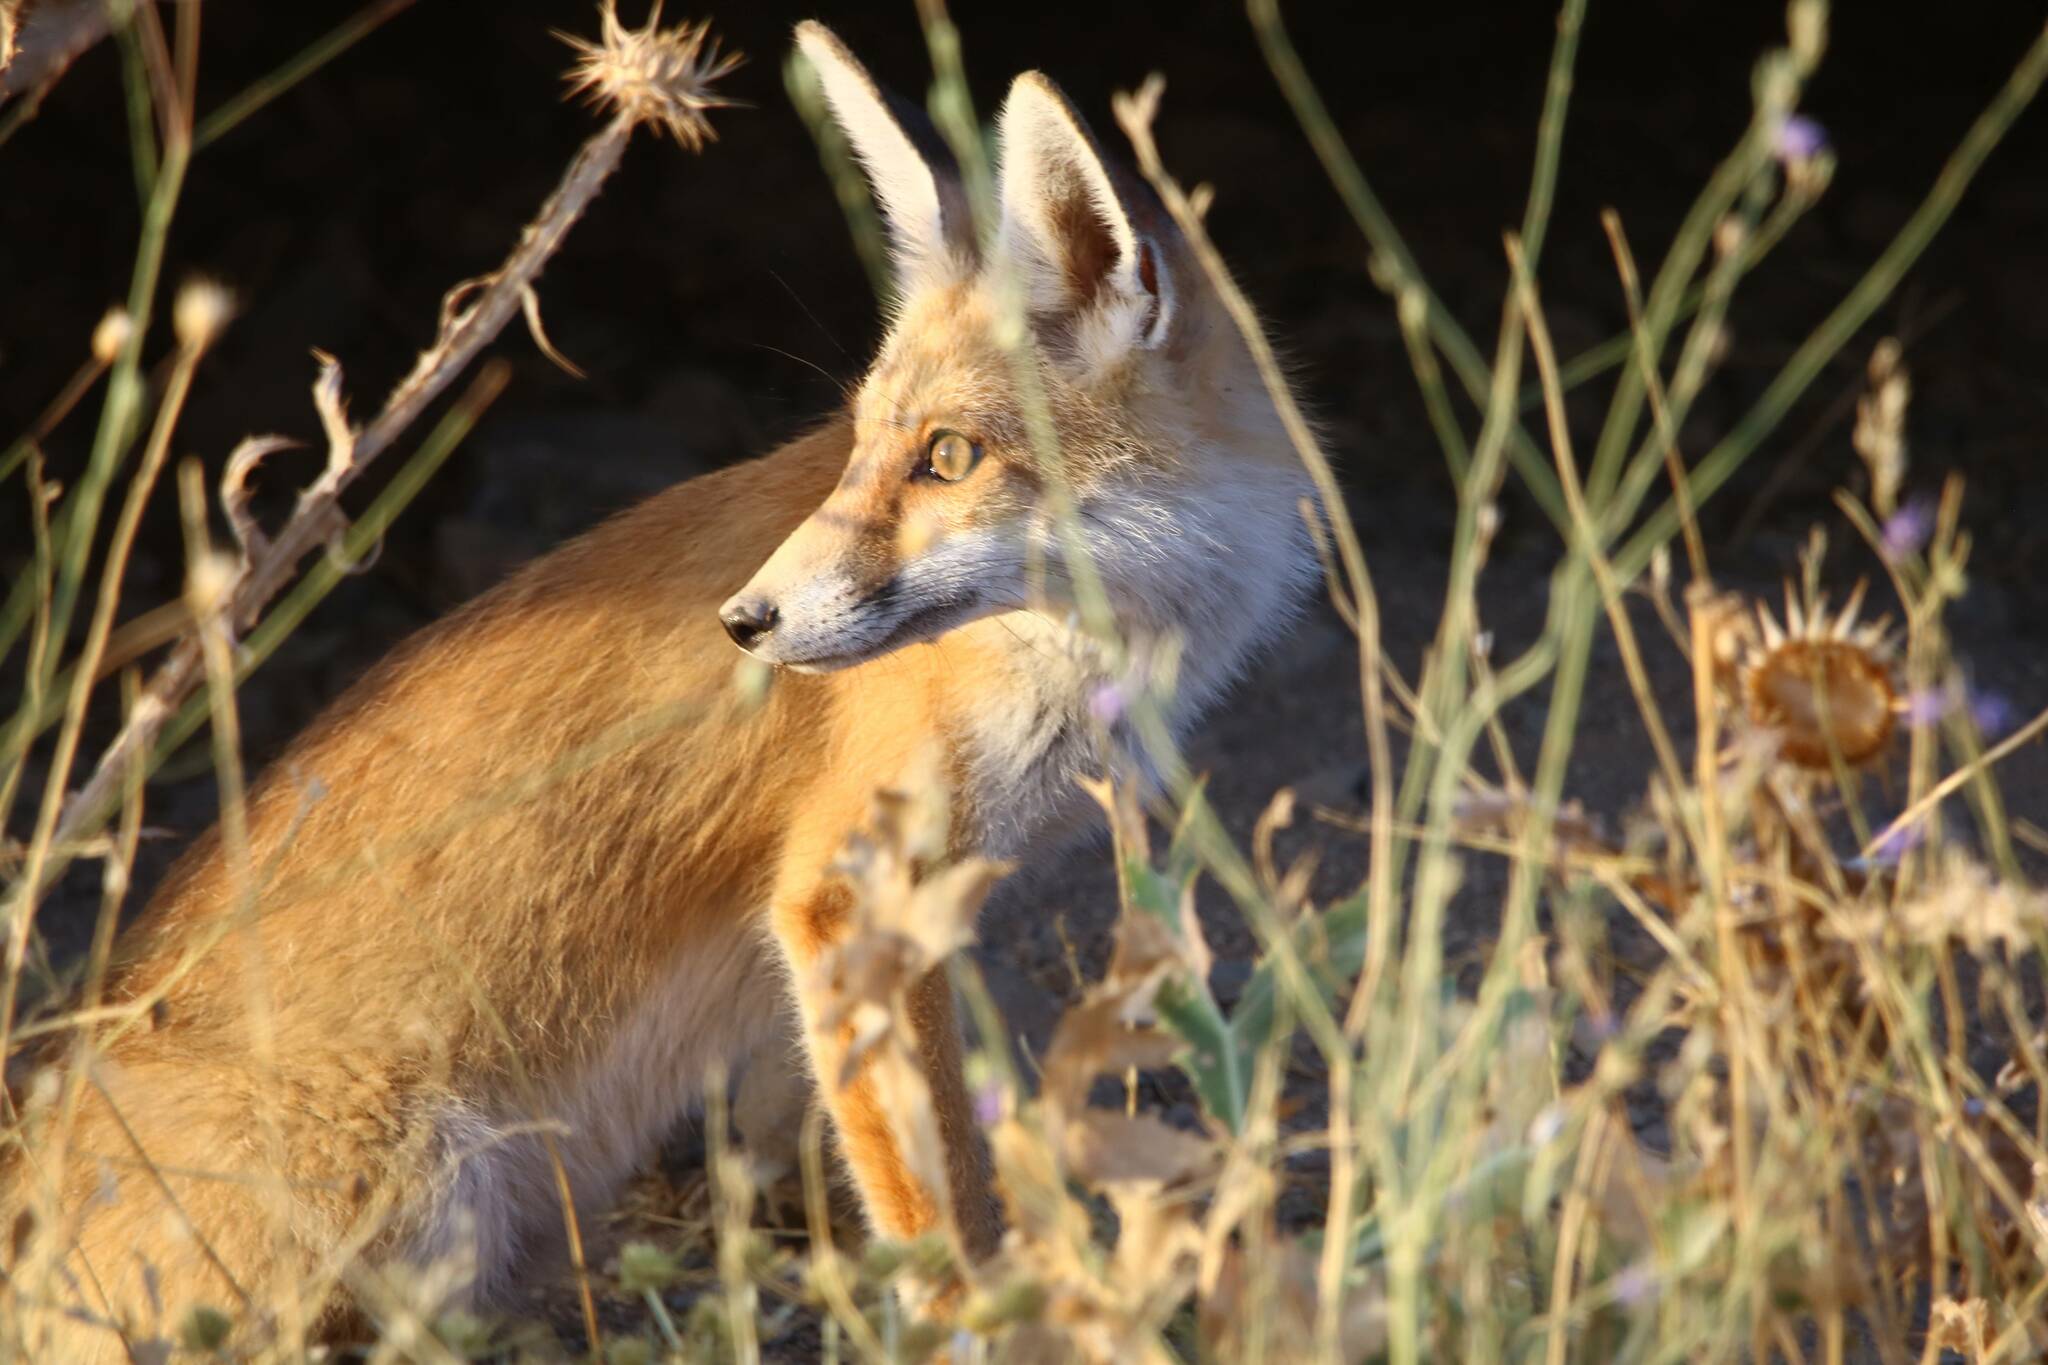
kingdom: Animalia
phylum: Chordata
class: Mammalia
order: Carnivora
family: Canidae
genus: Vulpes
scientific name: Vulpes vulpes
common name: Red fox
